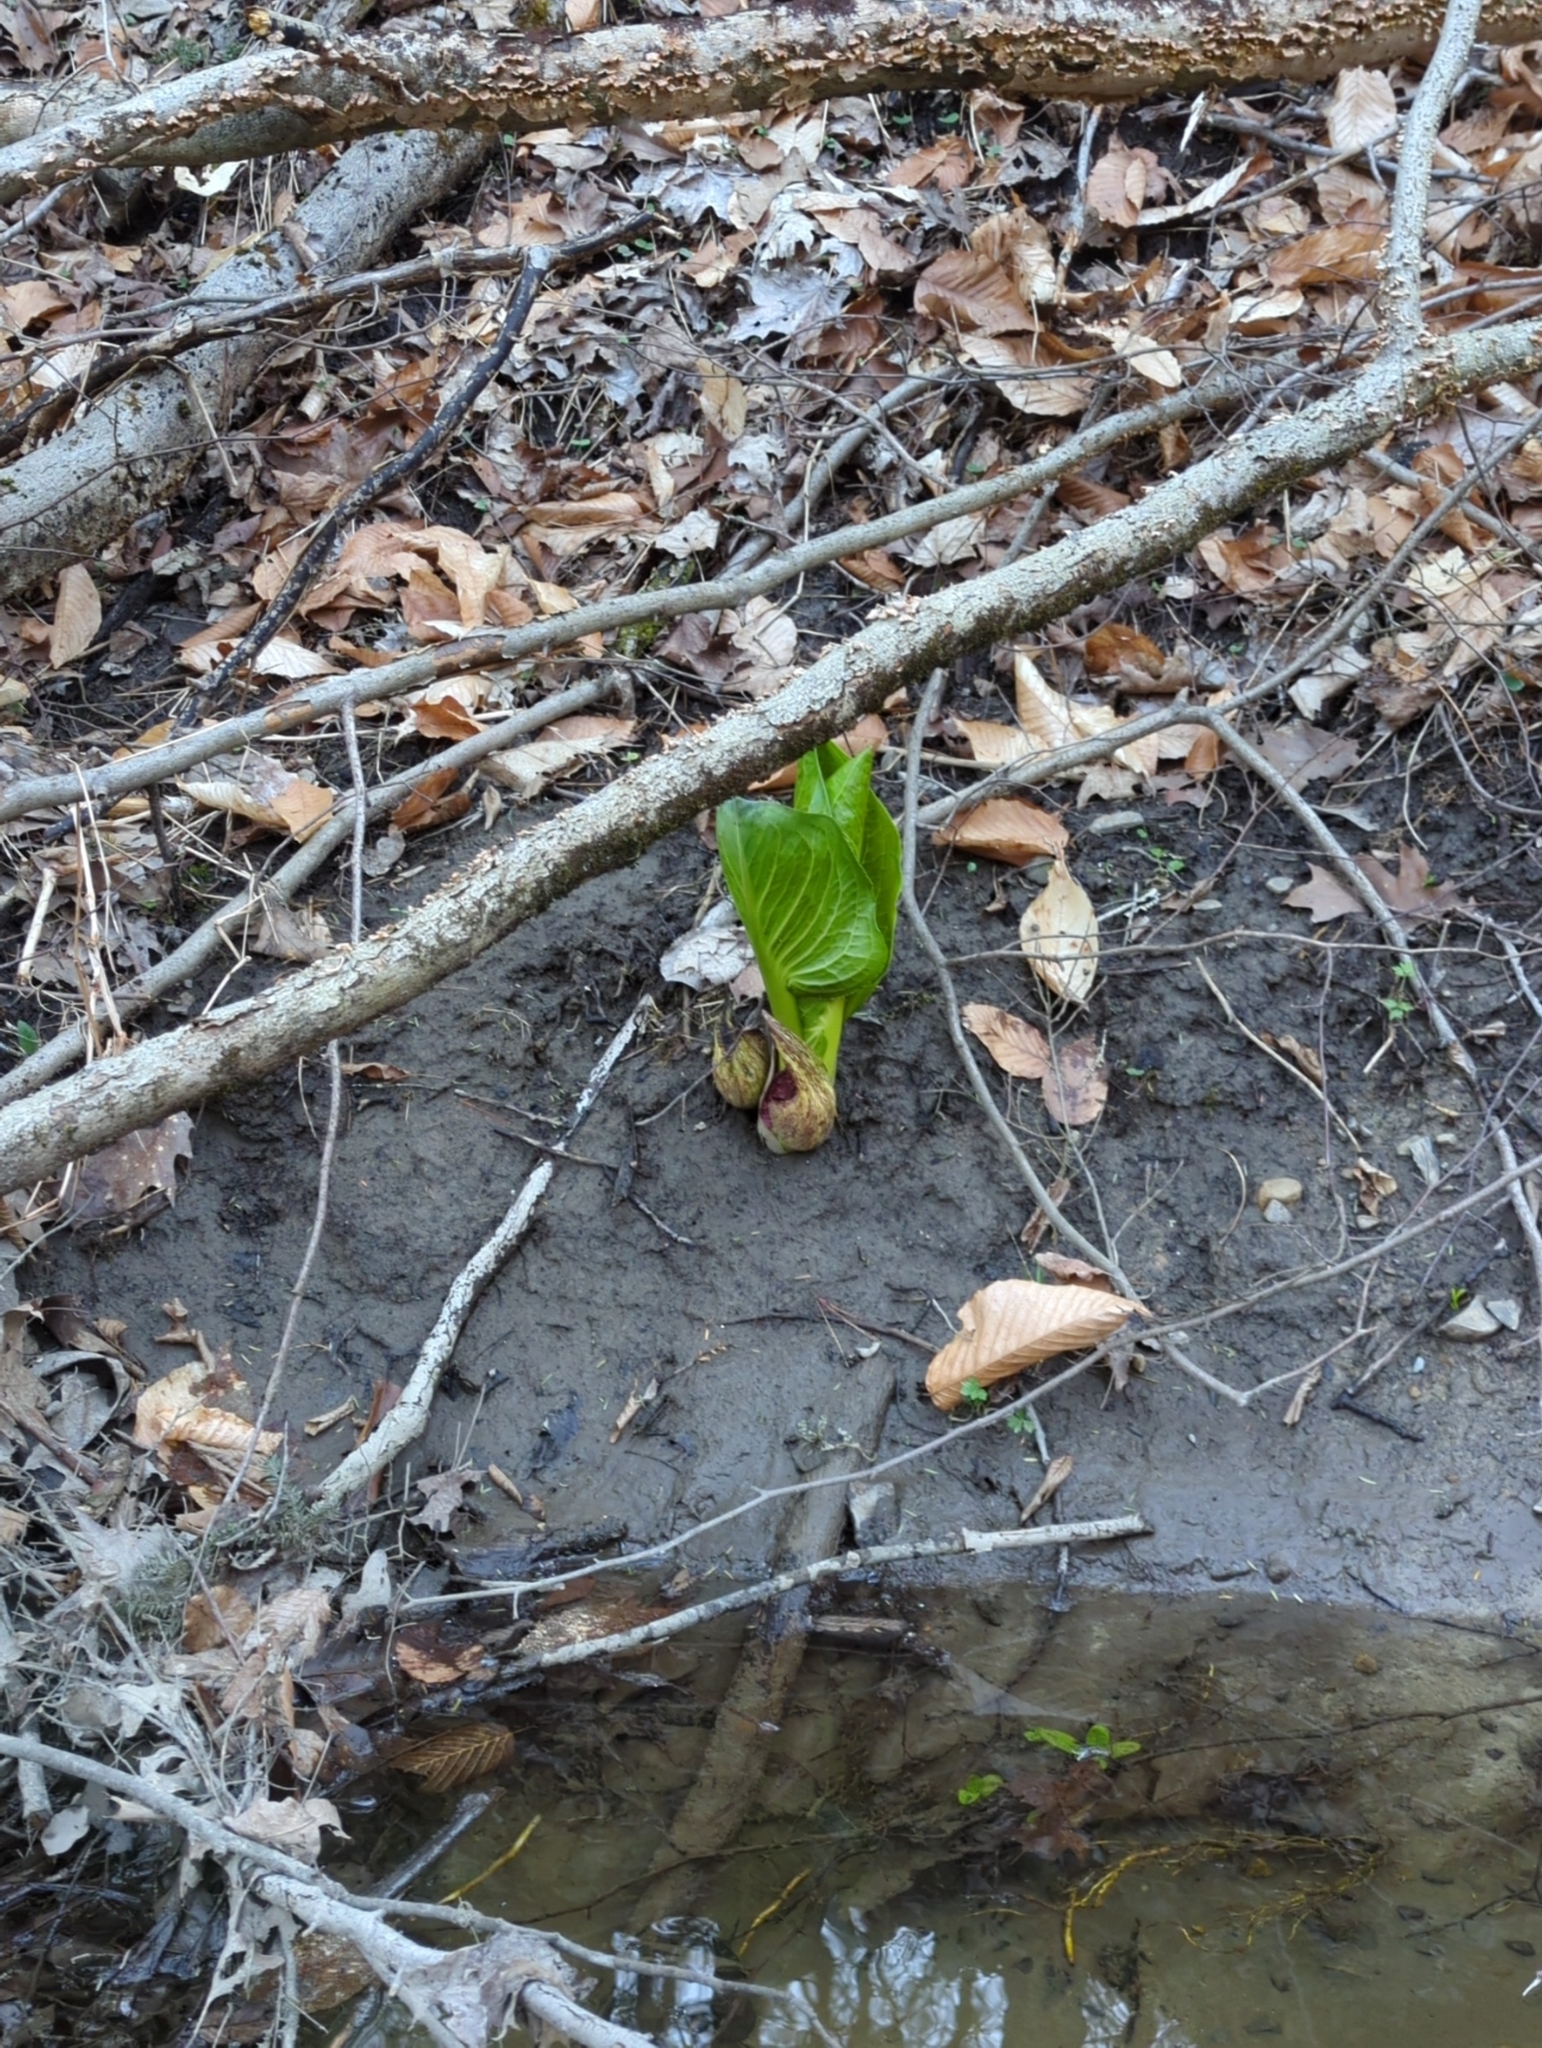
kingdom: Plantae
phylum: Tracheophyta
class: Liliopsida
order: Alismatales
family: Araceae
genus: Symplocarpus
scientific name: Symplocarpus foetidus
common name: Eastern skunk cabbage
